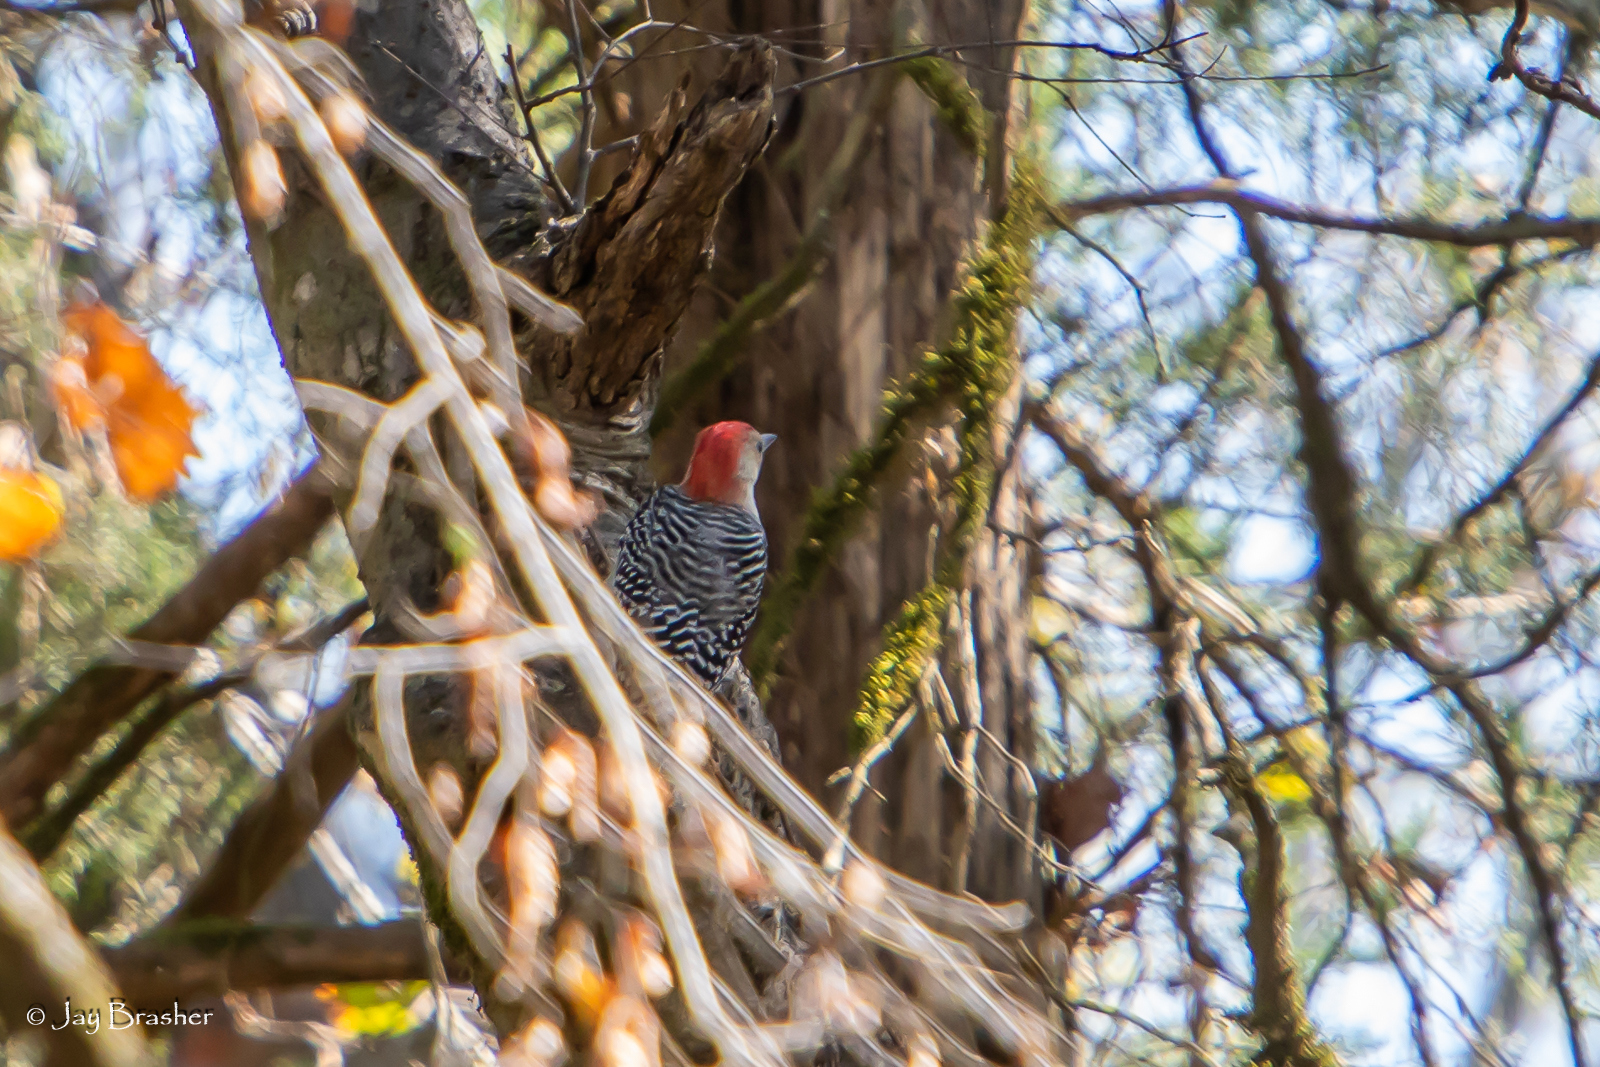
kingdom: Animalia
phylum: Chordata
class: Aves
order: Piciformes
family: Picidae
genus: Melanerpes
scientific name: Melanerpes carolinus
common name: Red-bellied woodpecker
